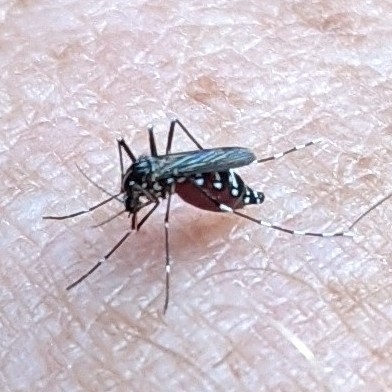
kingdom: Animalia
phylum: Arthropoda
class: Insecta
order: Diptera
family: Culicidae
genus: Aedes
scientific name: Aedes albopictus
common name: Tiger mosquito
